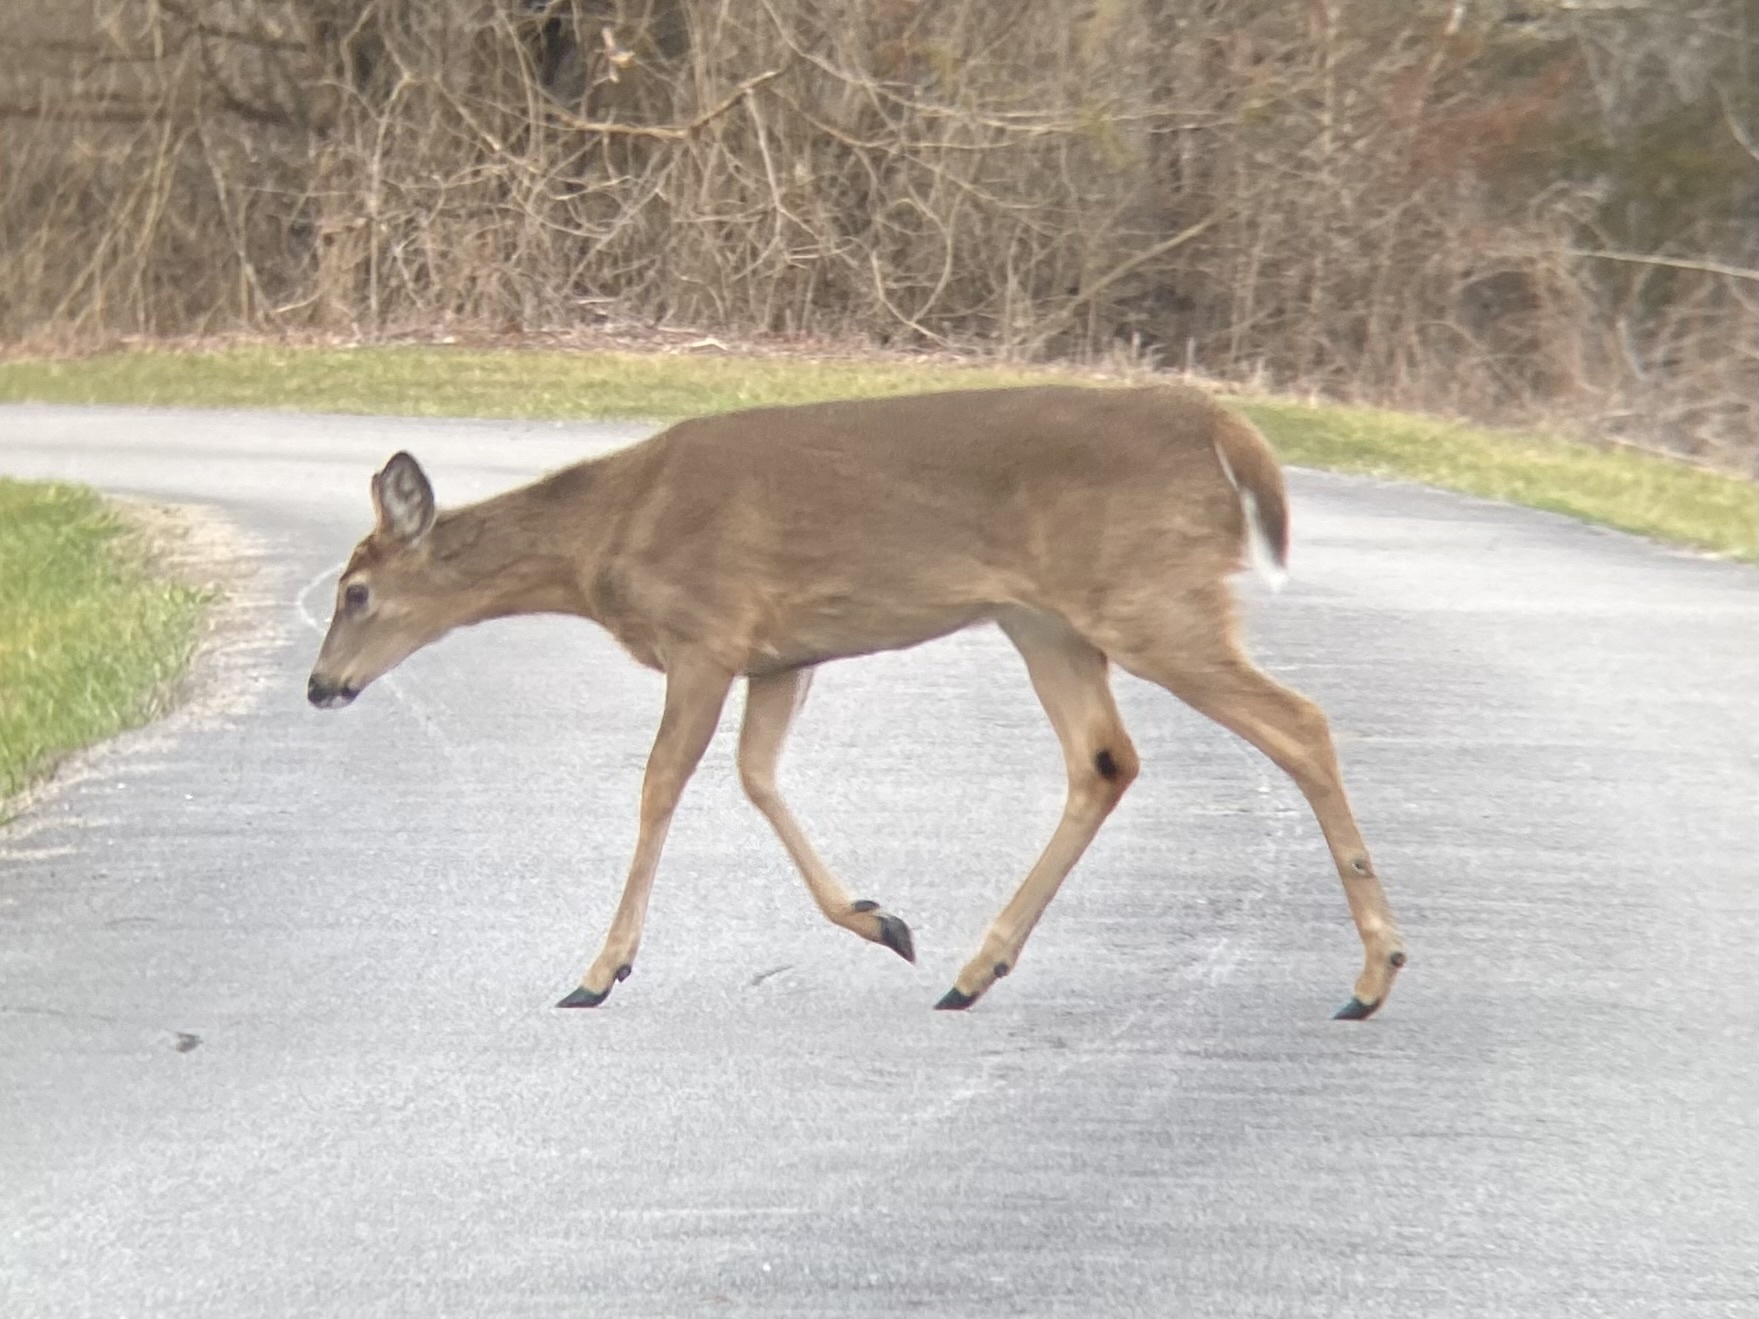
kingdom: Animalia
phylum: Chordata
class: Mammalia
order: Artiodactyla
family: Cervidae
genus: Odocoileus
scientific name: Odocoileus virginianus
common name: White-tailed deer
